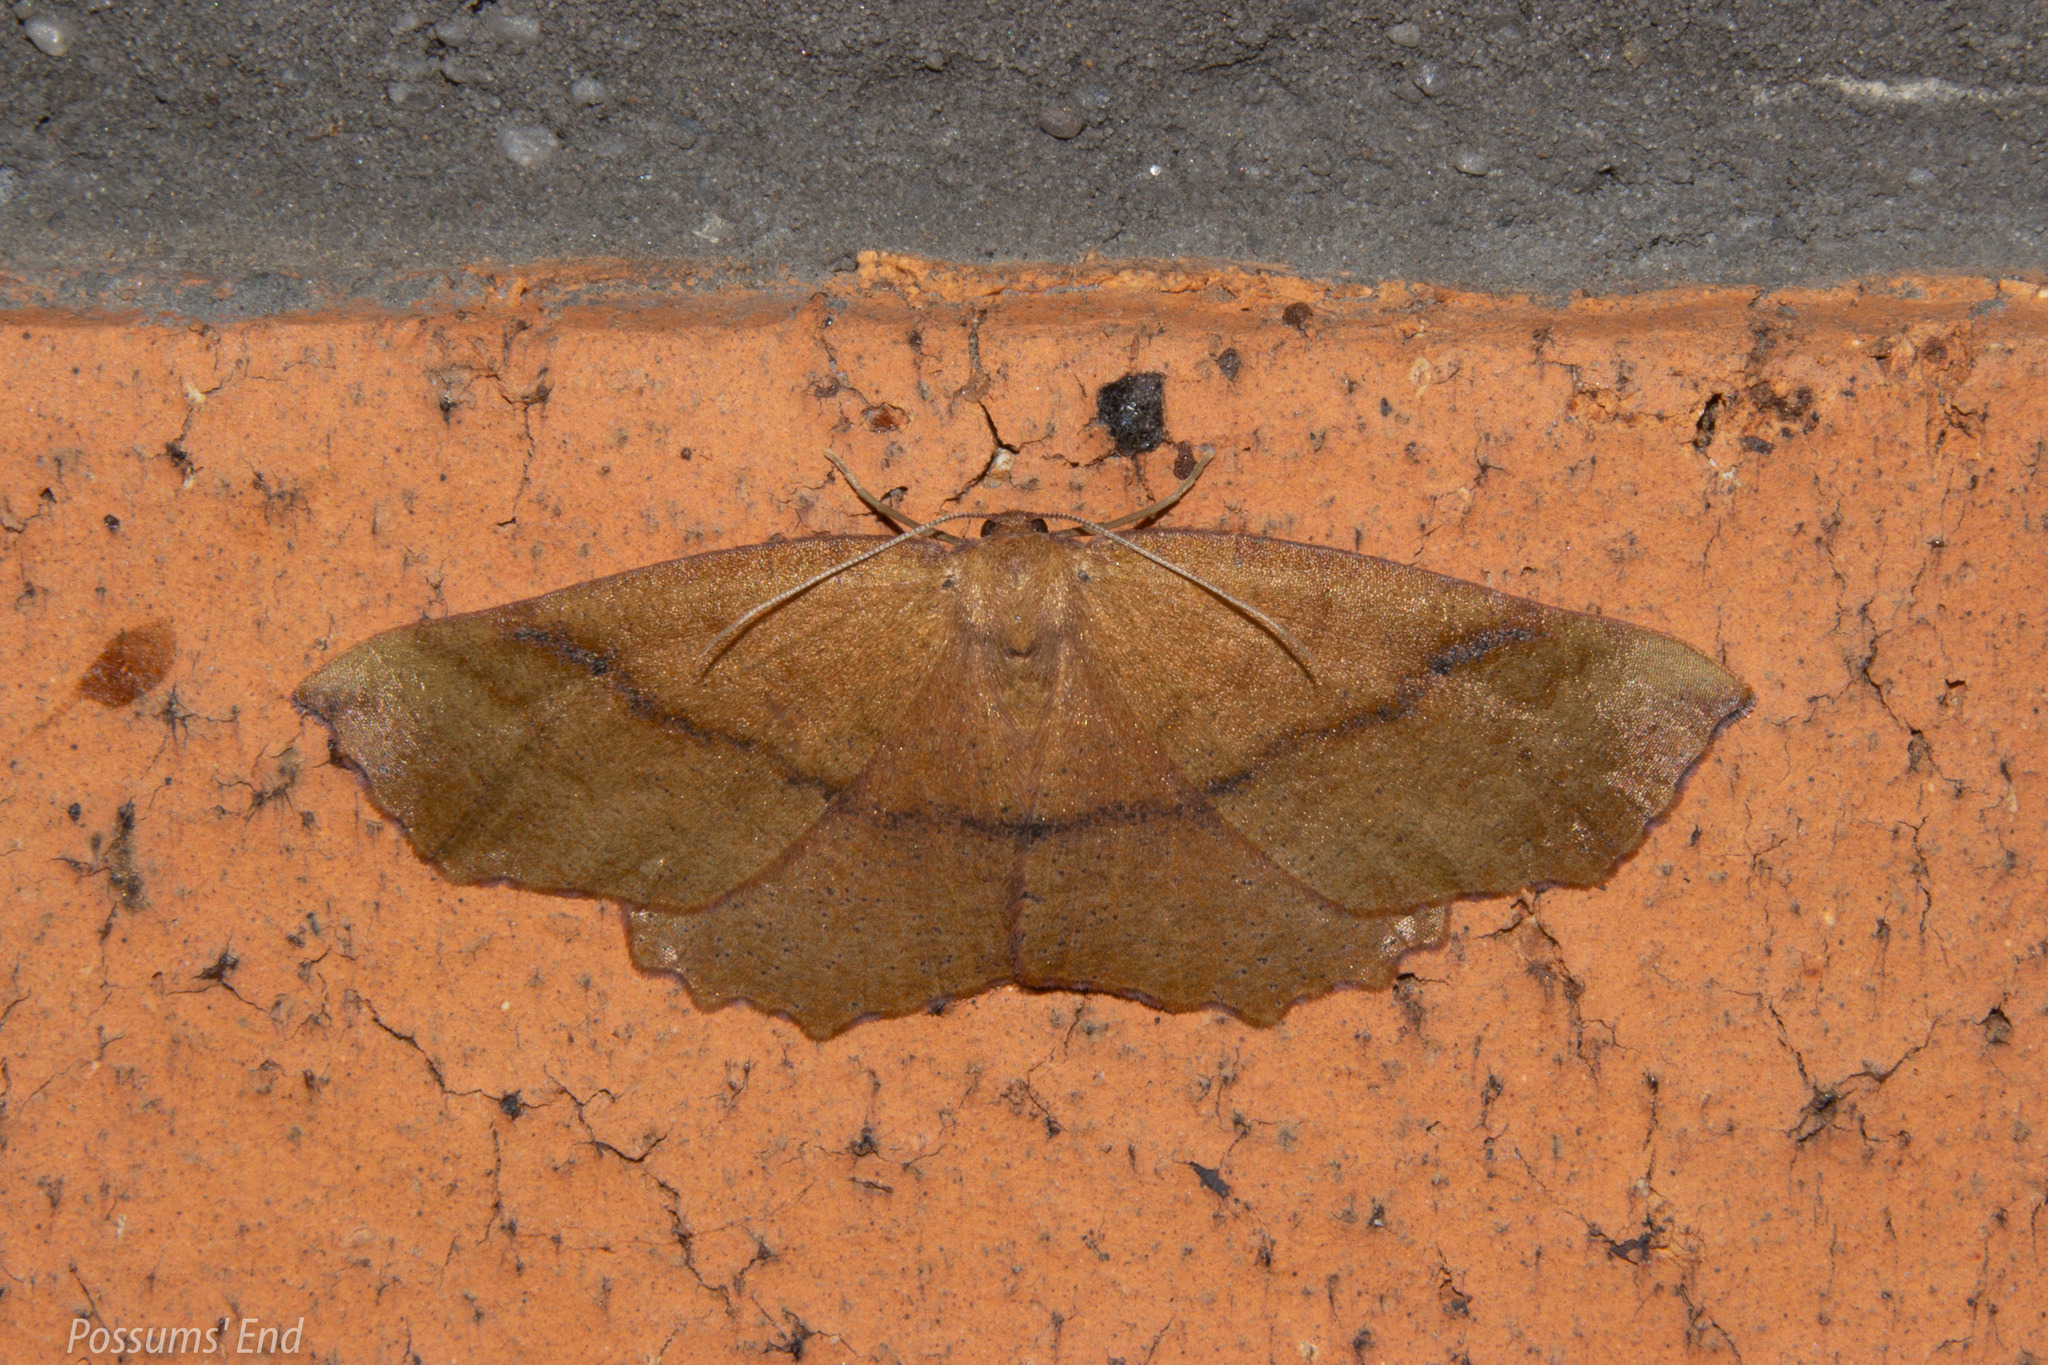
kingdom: Animalia
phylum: Arthropoda
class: Insecta
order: Lepidoptera
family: Geometridae
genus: Xyridacma
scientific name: Xyridacma ustaria
